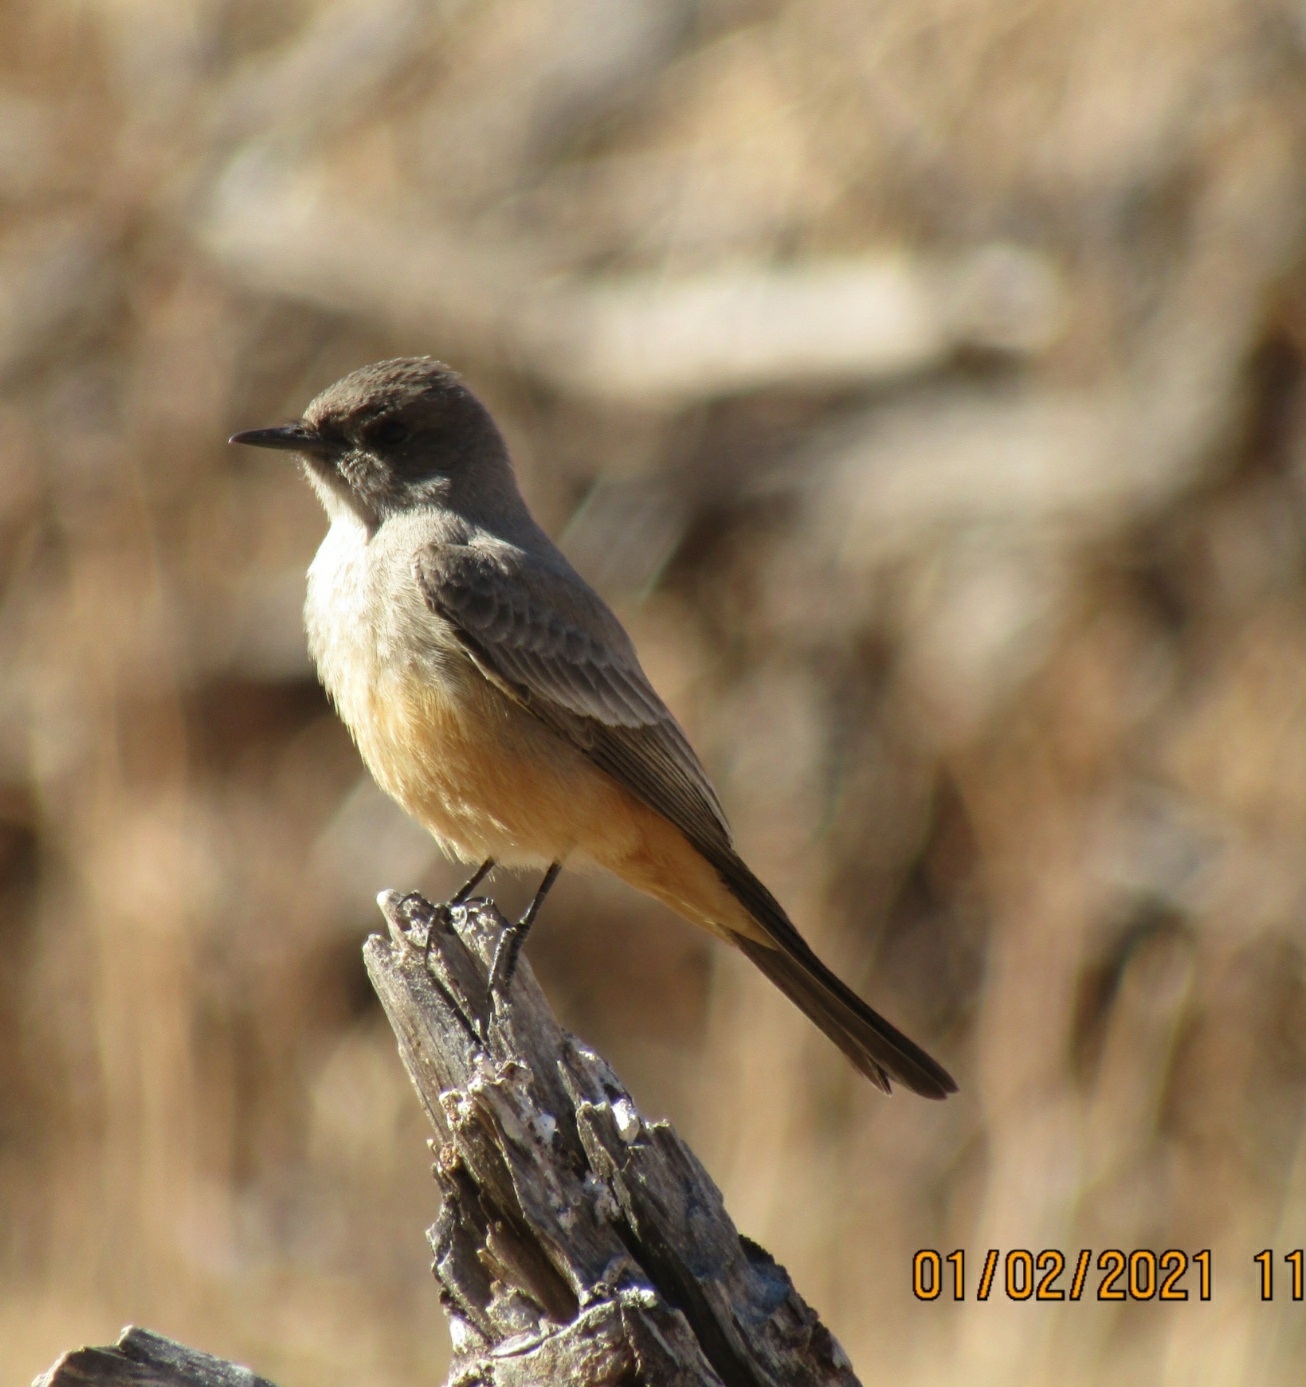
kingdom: Animalia
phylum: Chordata
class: Aves
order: Passeriformes
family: Tyrannidae
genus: Sayornis
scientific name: Sayornis saya
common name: Say's phoebe
